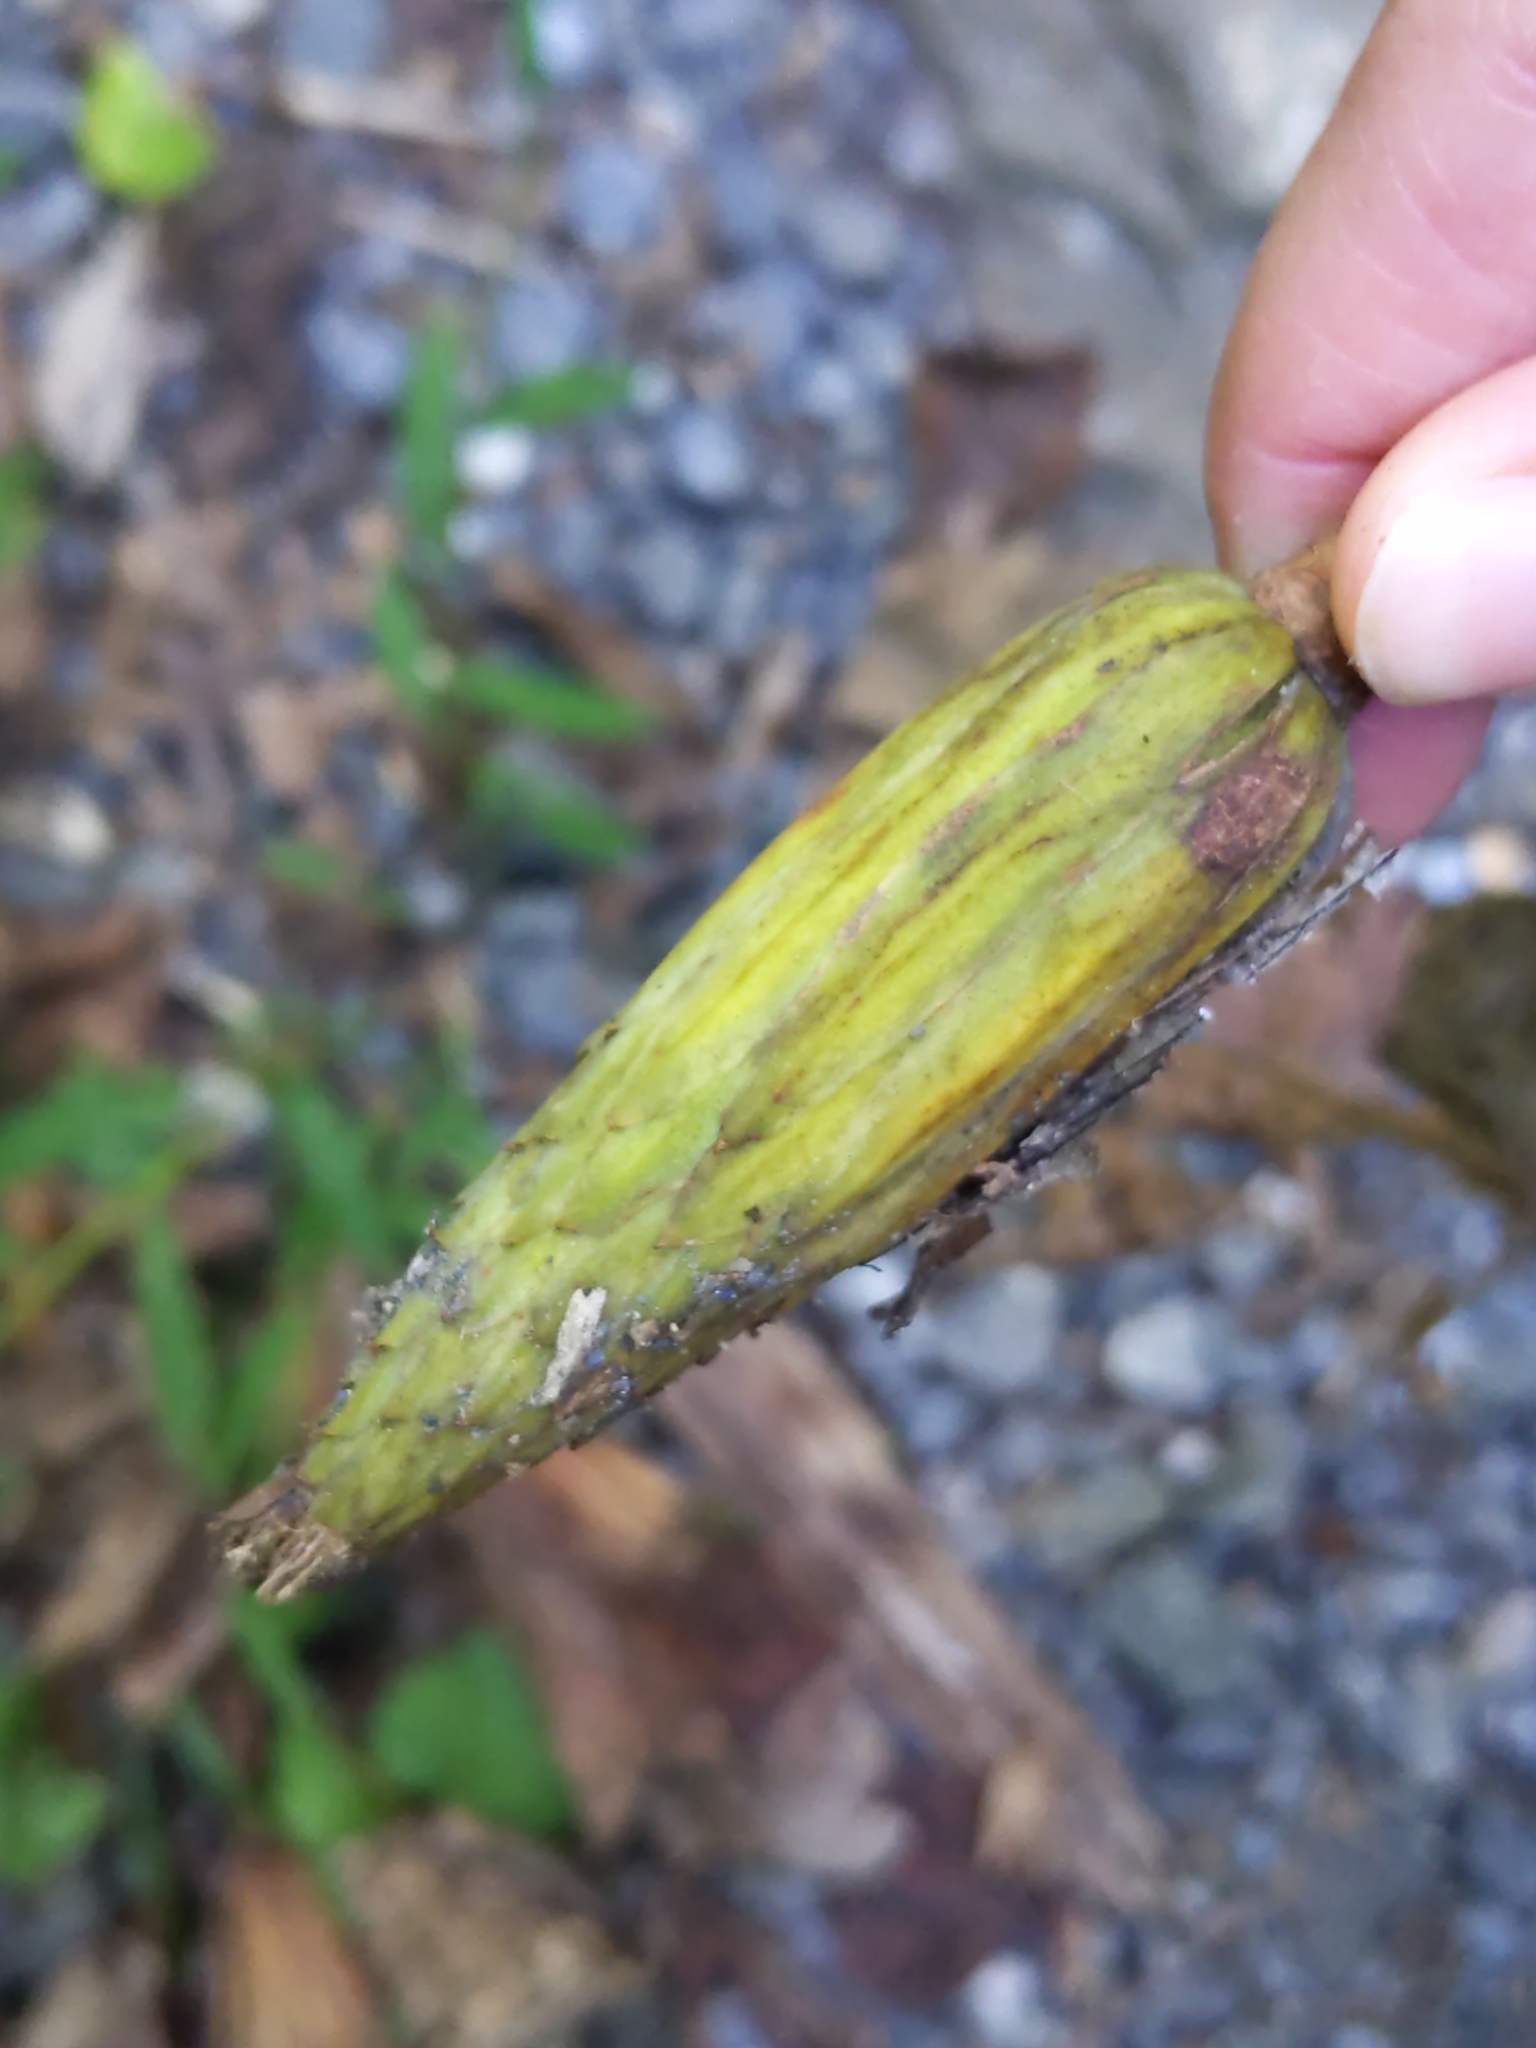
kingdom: Plantae
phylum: Tracheophyta
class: Magnoliopsida
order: Magnoliales
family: Magnoliaceae
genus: Liriodendron
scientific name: Liriodendron tulipifera
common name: Tulip tree
